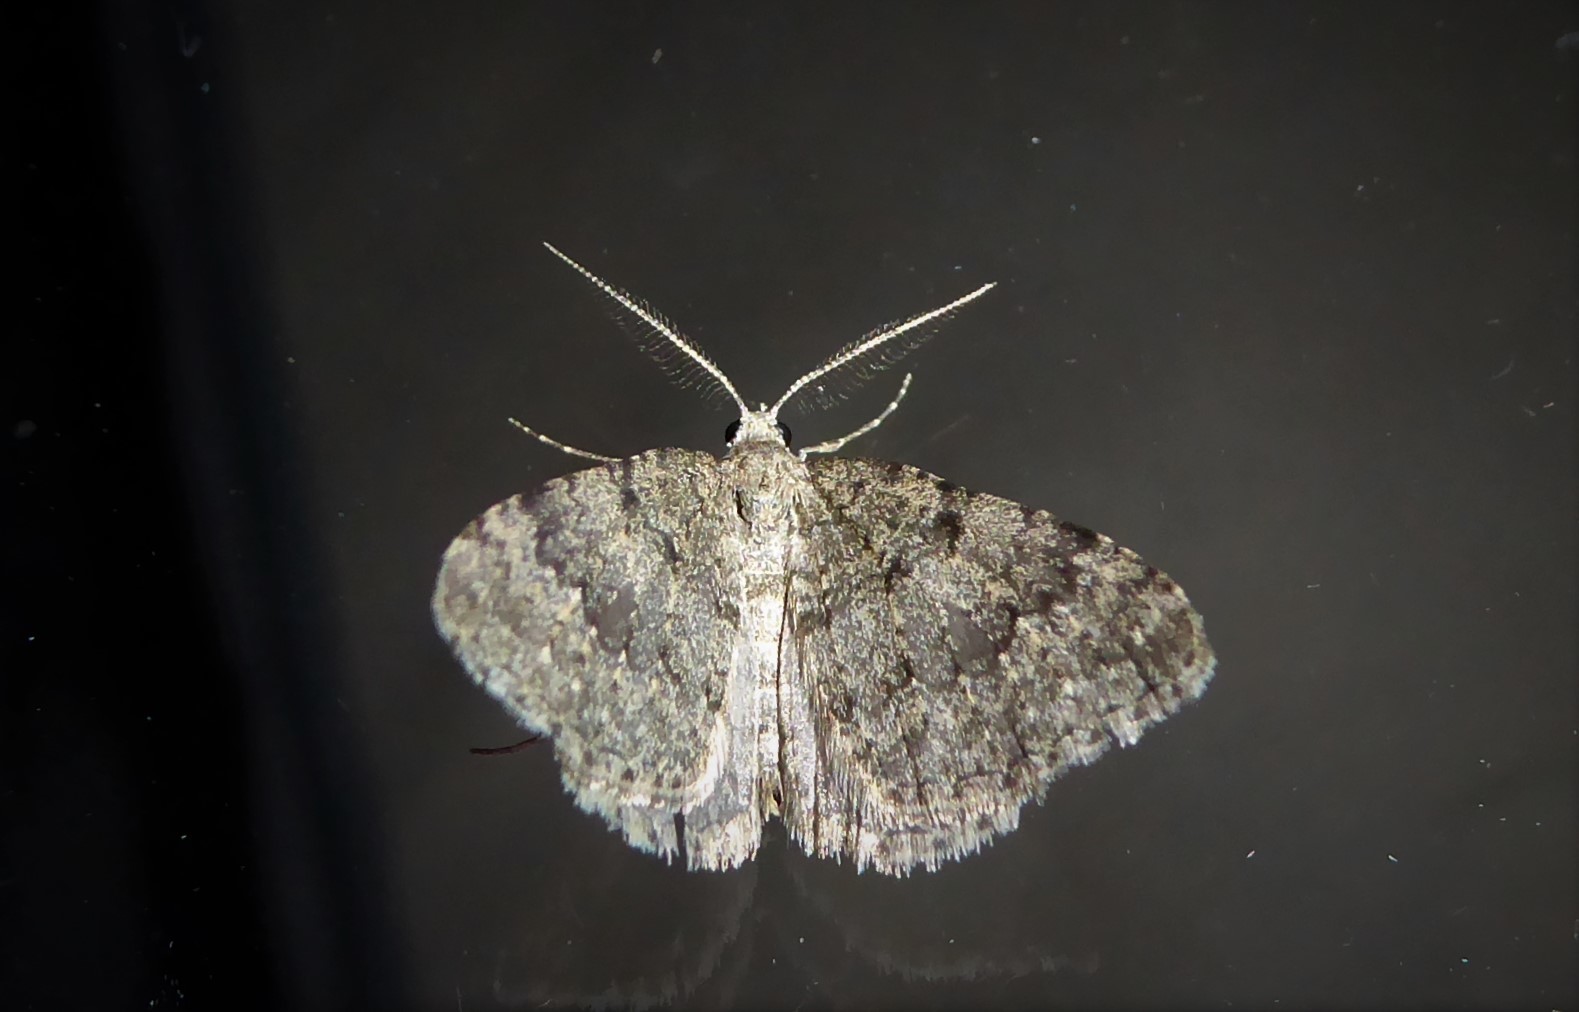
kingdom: Animalia
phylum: Arthropoda
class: Insecta
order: Lepidoptera
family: Geometridae
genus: Helastia
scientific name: Helastia corcularia
